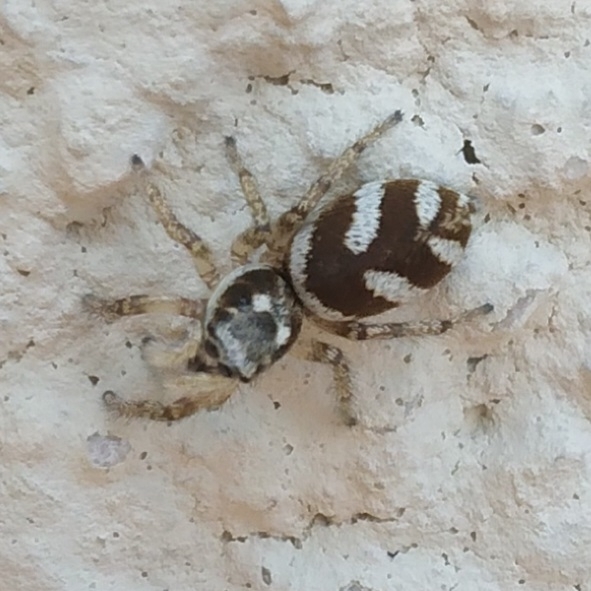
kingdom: Animalia
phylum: Arthropoda
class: Arachnida
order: Araneae
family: Salticidae
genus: Salticus
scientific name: Salticus scenicus
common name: Zebra jumper
